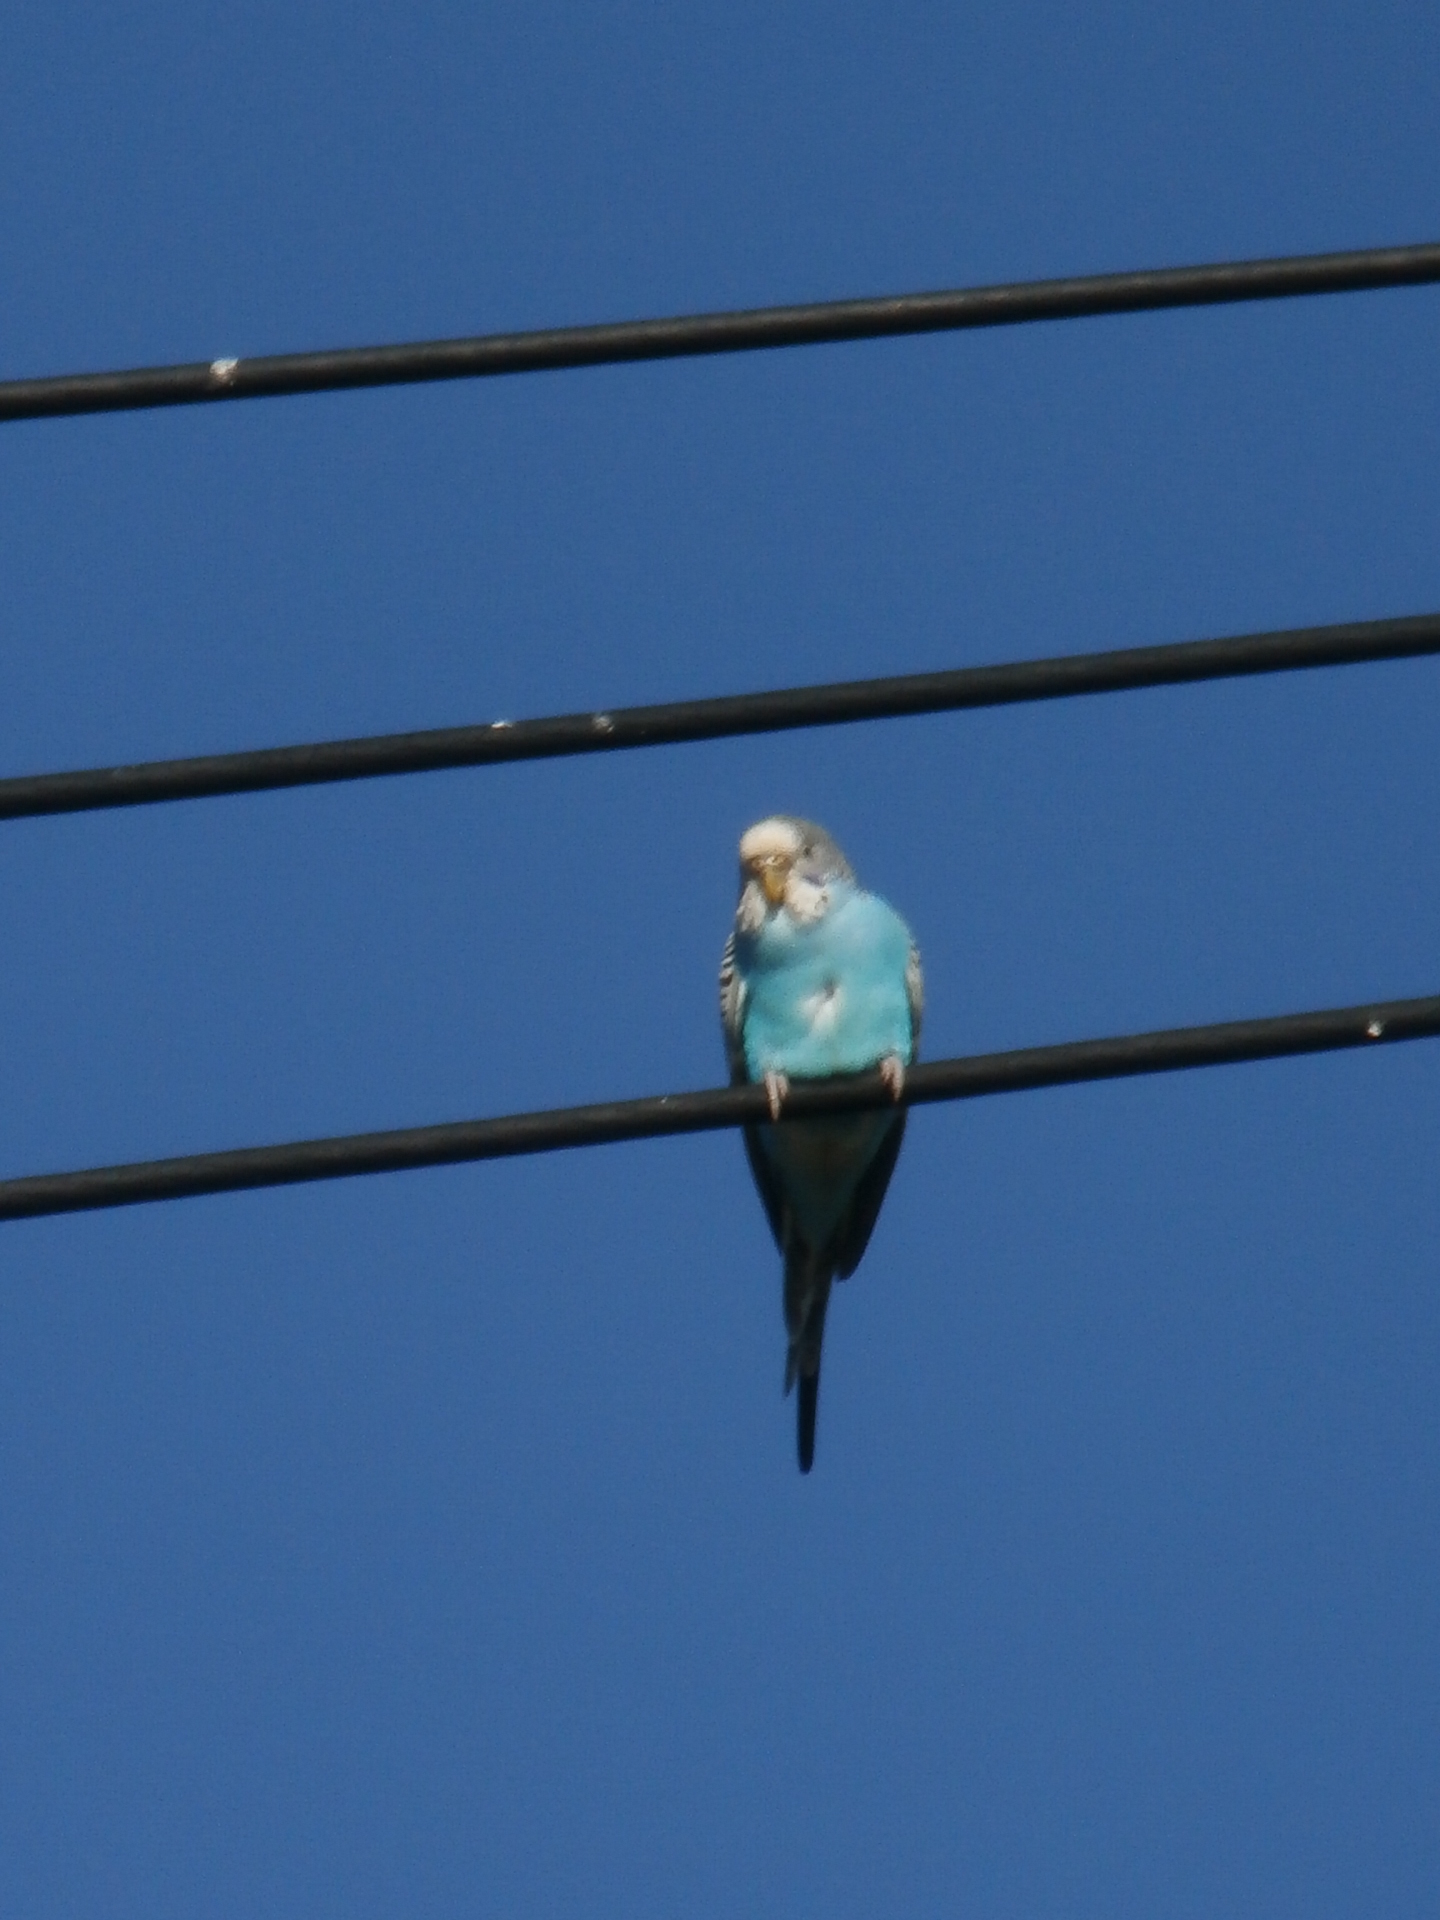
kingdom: Animalia
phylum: Chordata
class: Aves
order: Psittaciformes
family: Psittacidae
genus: Melopsittacus
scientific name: Melopsittacus undulatus
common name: Budgerigar
